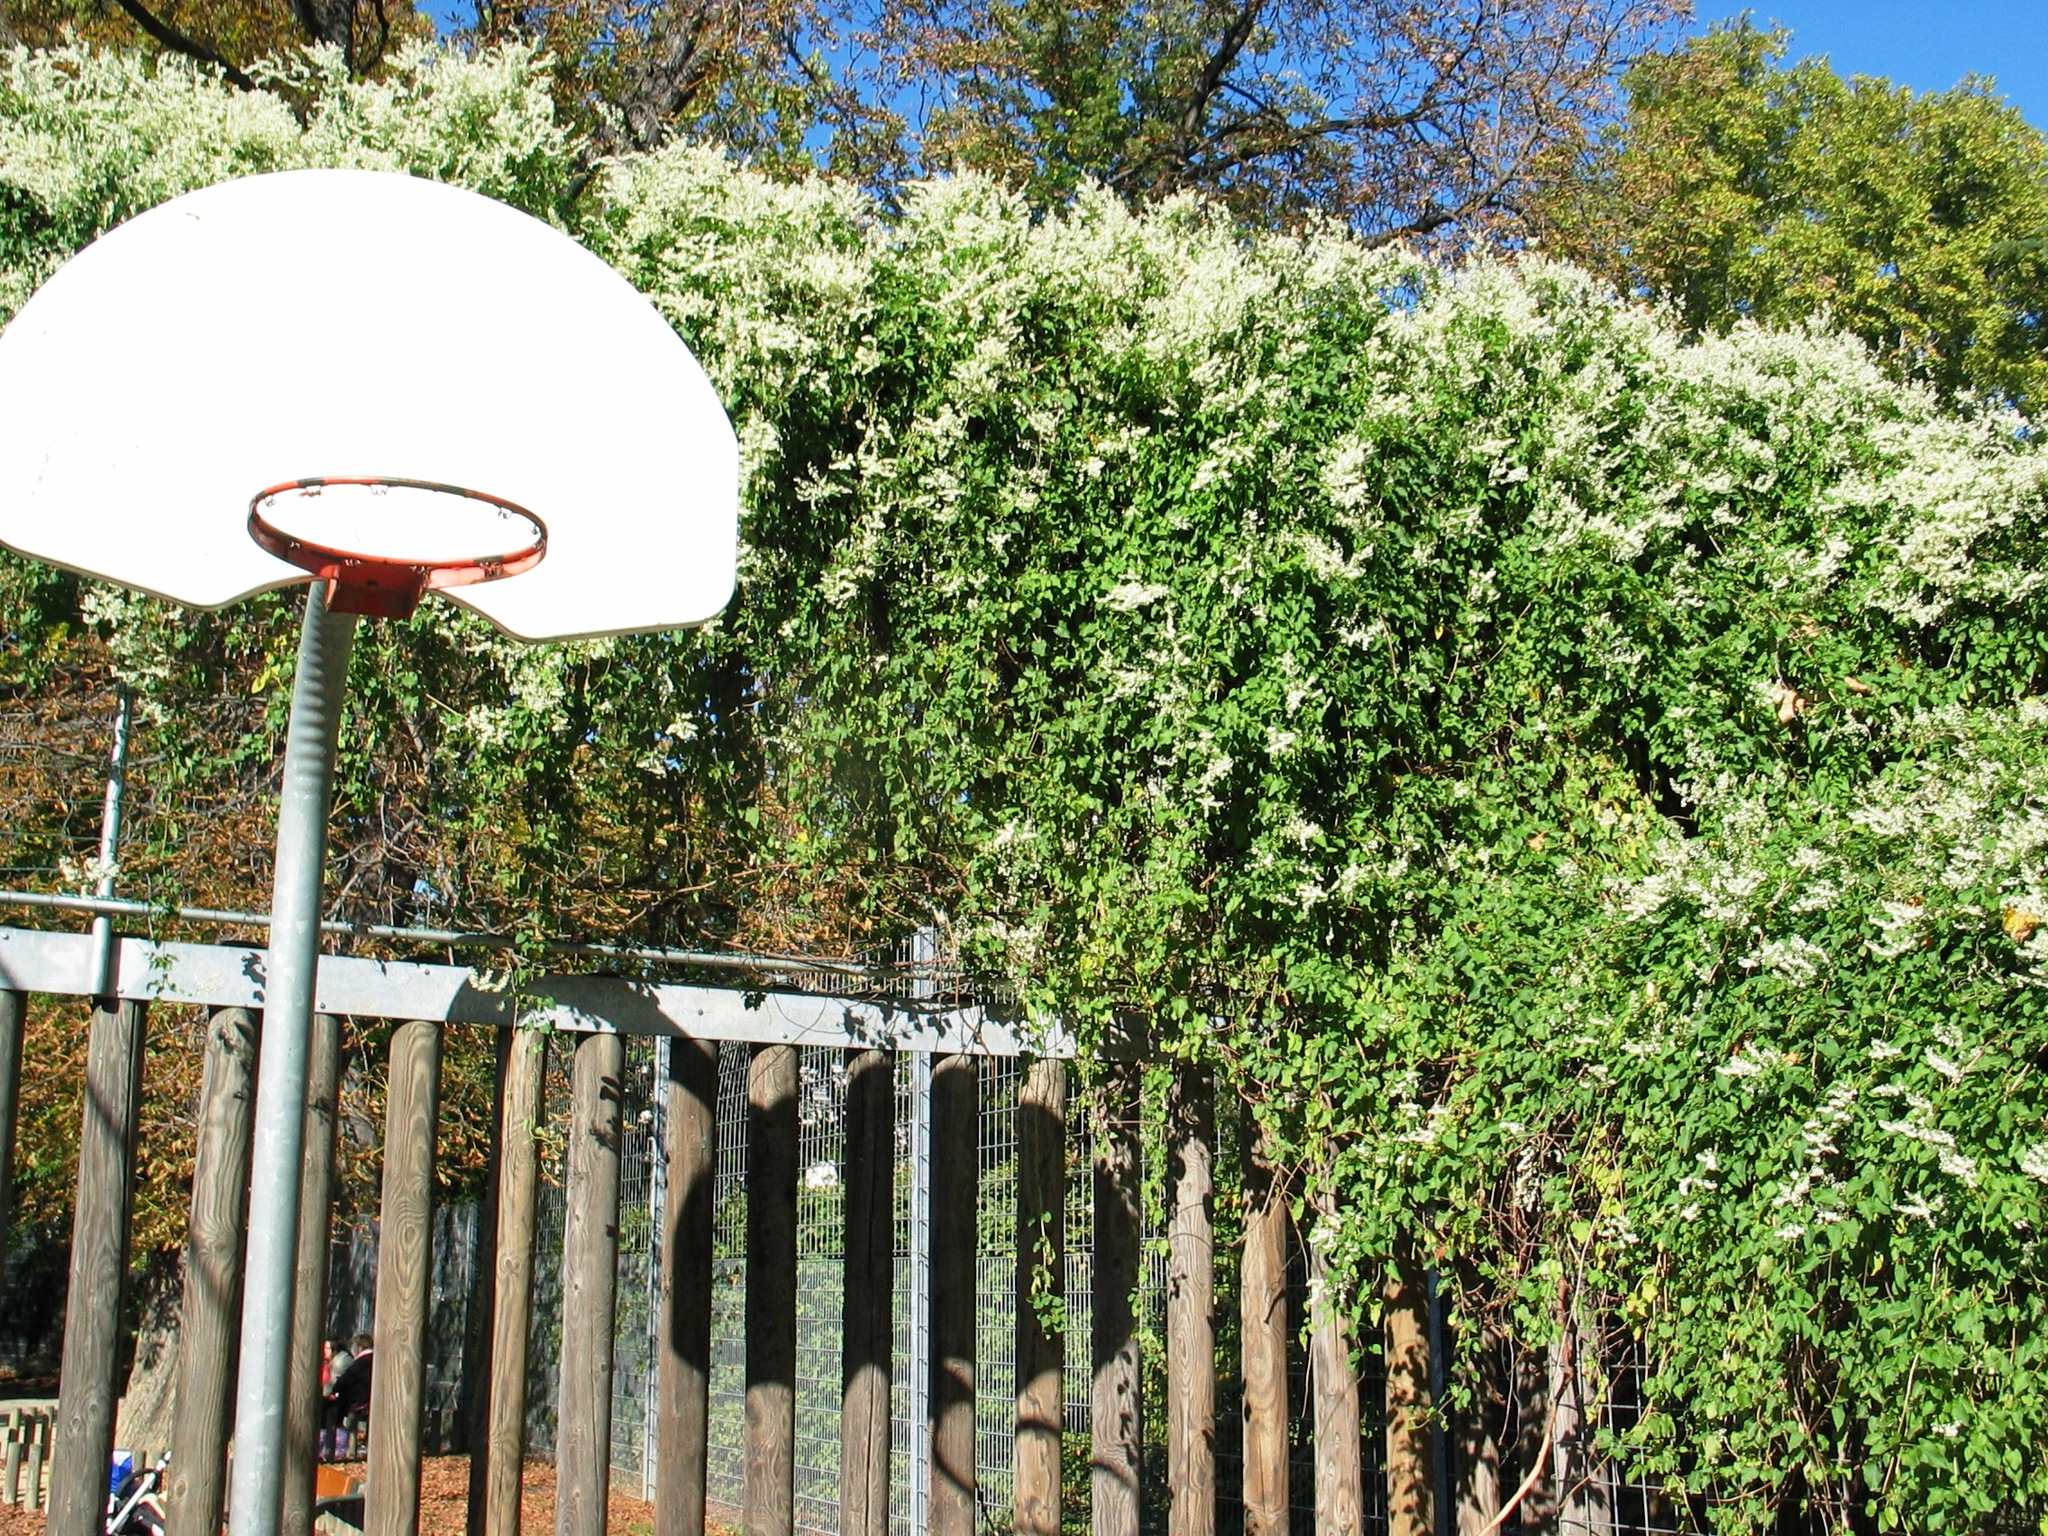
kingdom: Plantae
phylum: Tracheophyta
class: Magnoliopsida
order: Caryophyllales
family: Polygonaceae
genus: Fallopia
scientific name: Fallopia baldschuanica
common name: Russian-vine
